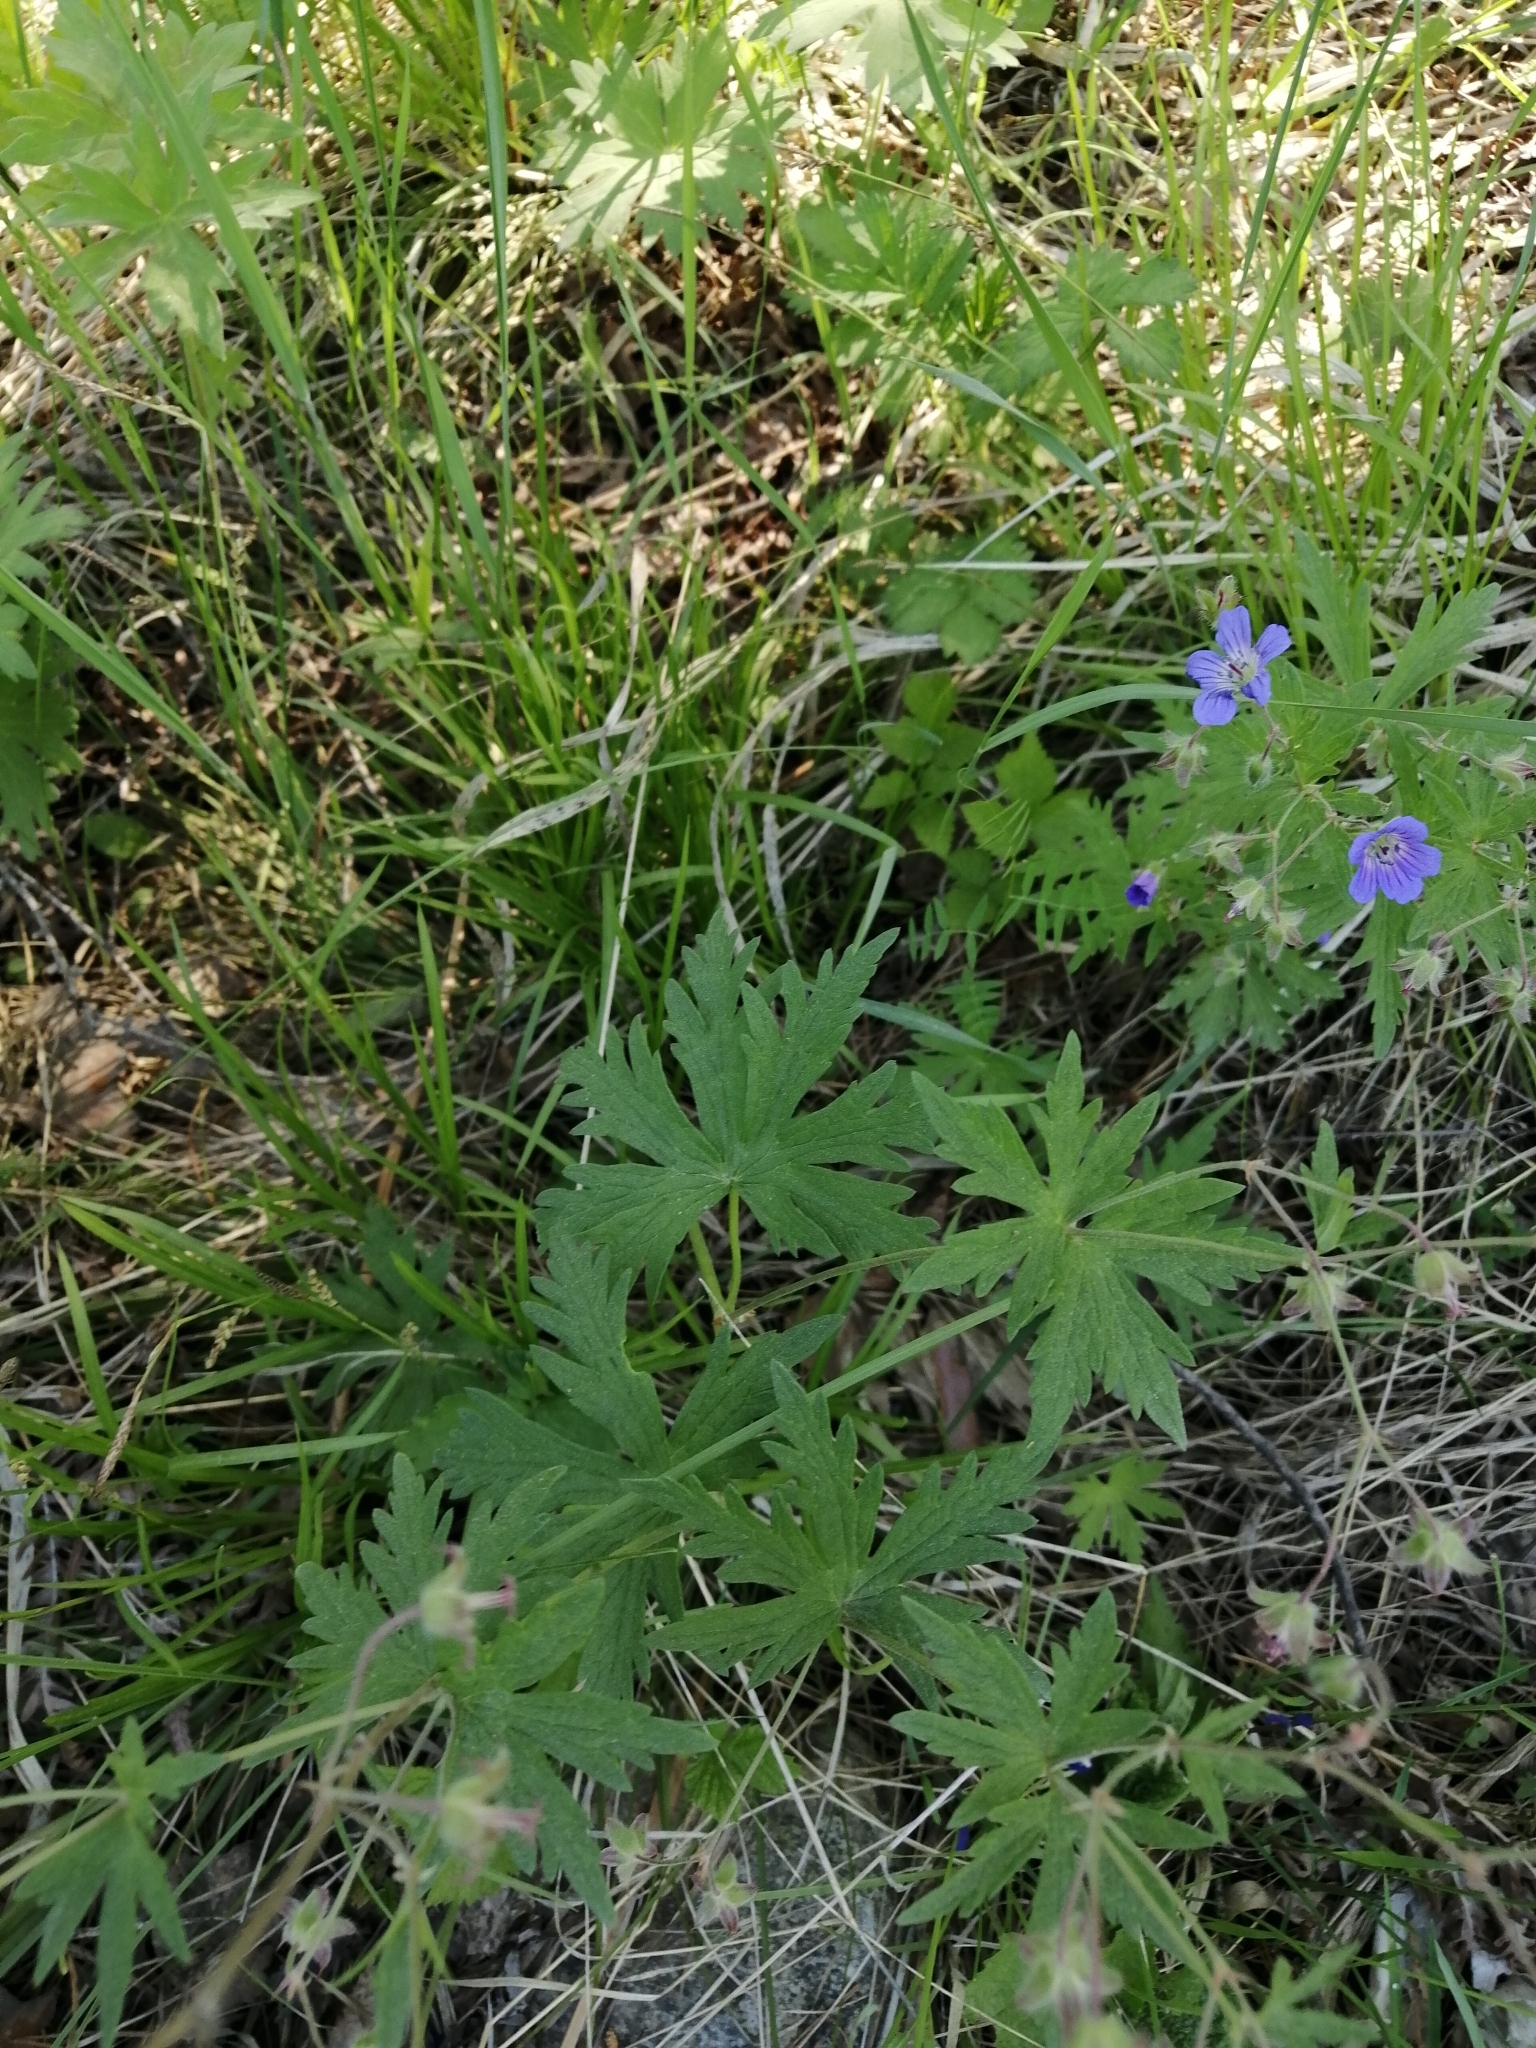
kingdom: Plantae
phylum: Tracheophyta
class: Magnoliopsida
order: Geraniales
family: Geraniaceae
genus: Geranium
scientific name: Geranium pseudosibiricum
